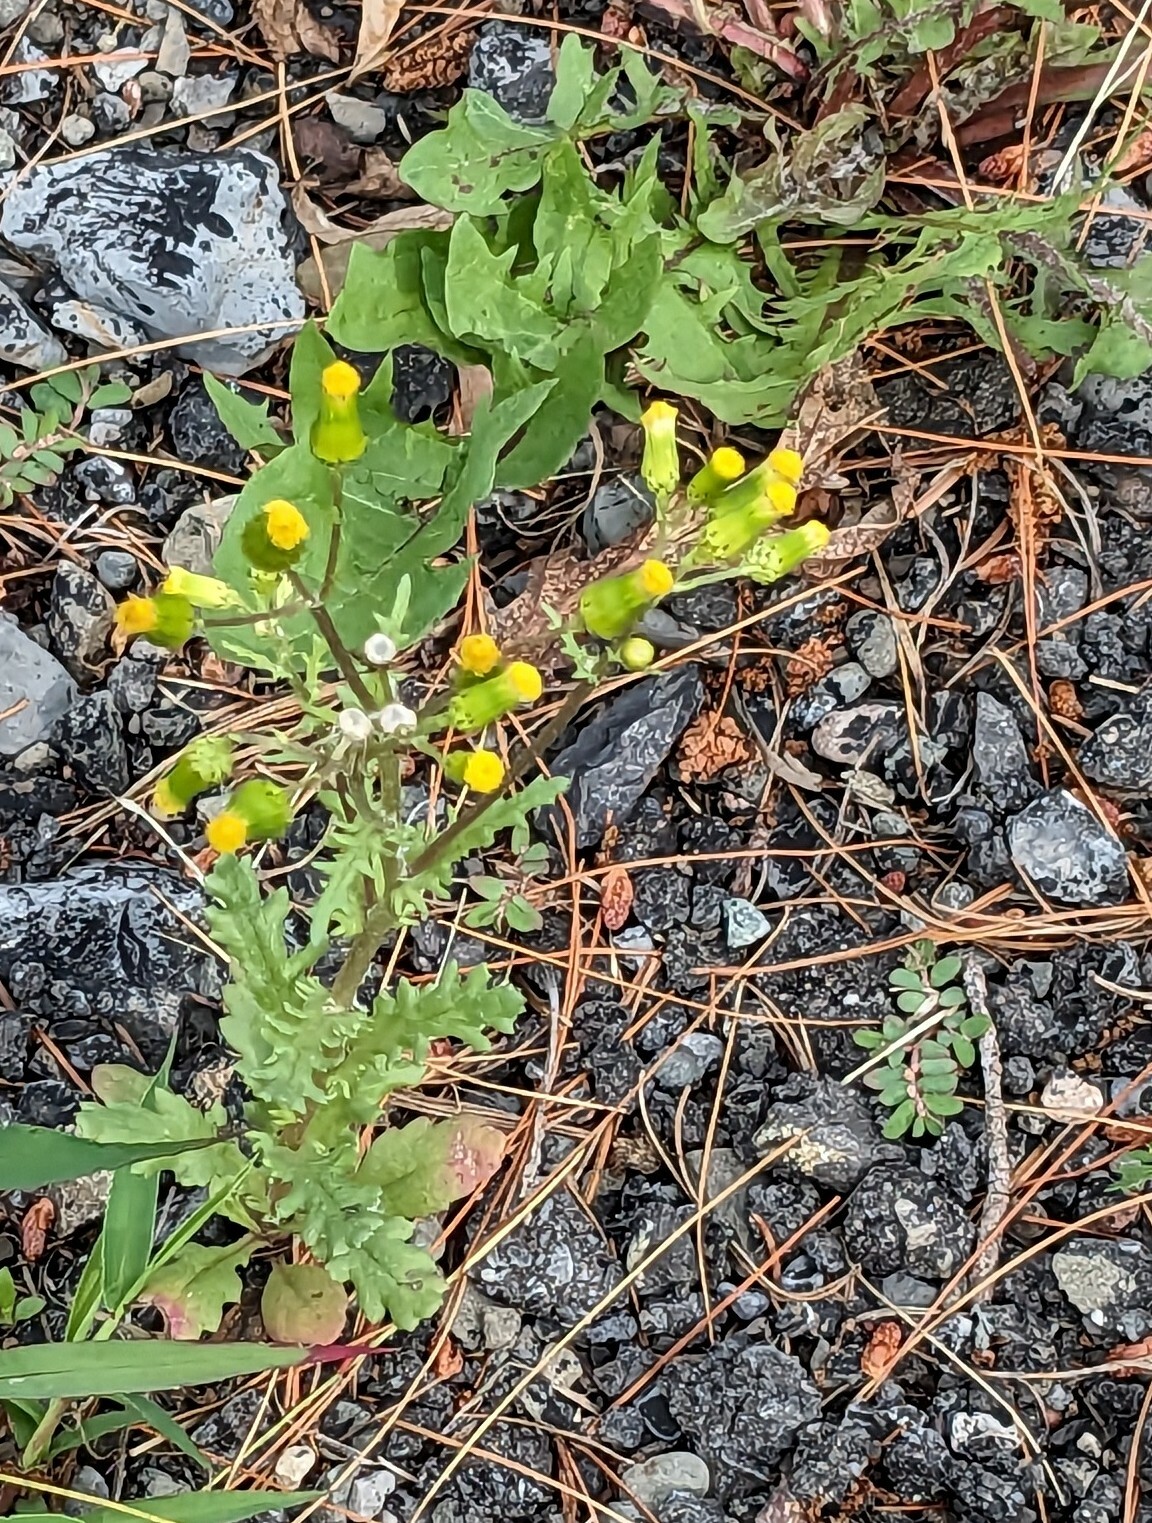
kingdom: Plantae
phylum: Tracheophyta
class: Magnoliopsida
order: Asterales
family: Asteraceae
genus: Senecio
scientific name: Senecio vulgaris
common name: Old-man-in-the-spring
